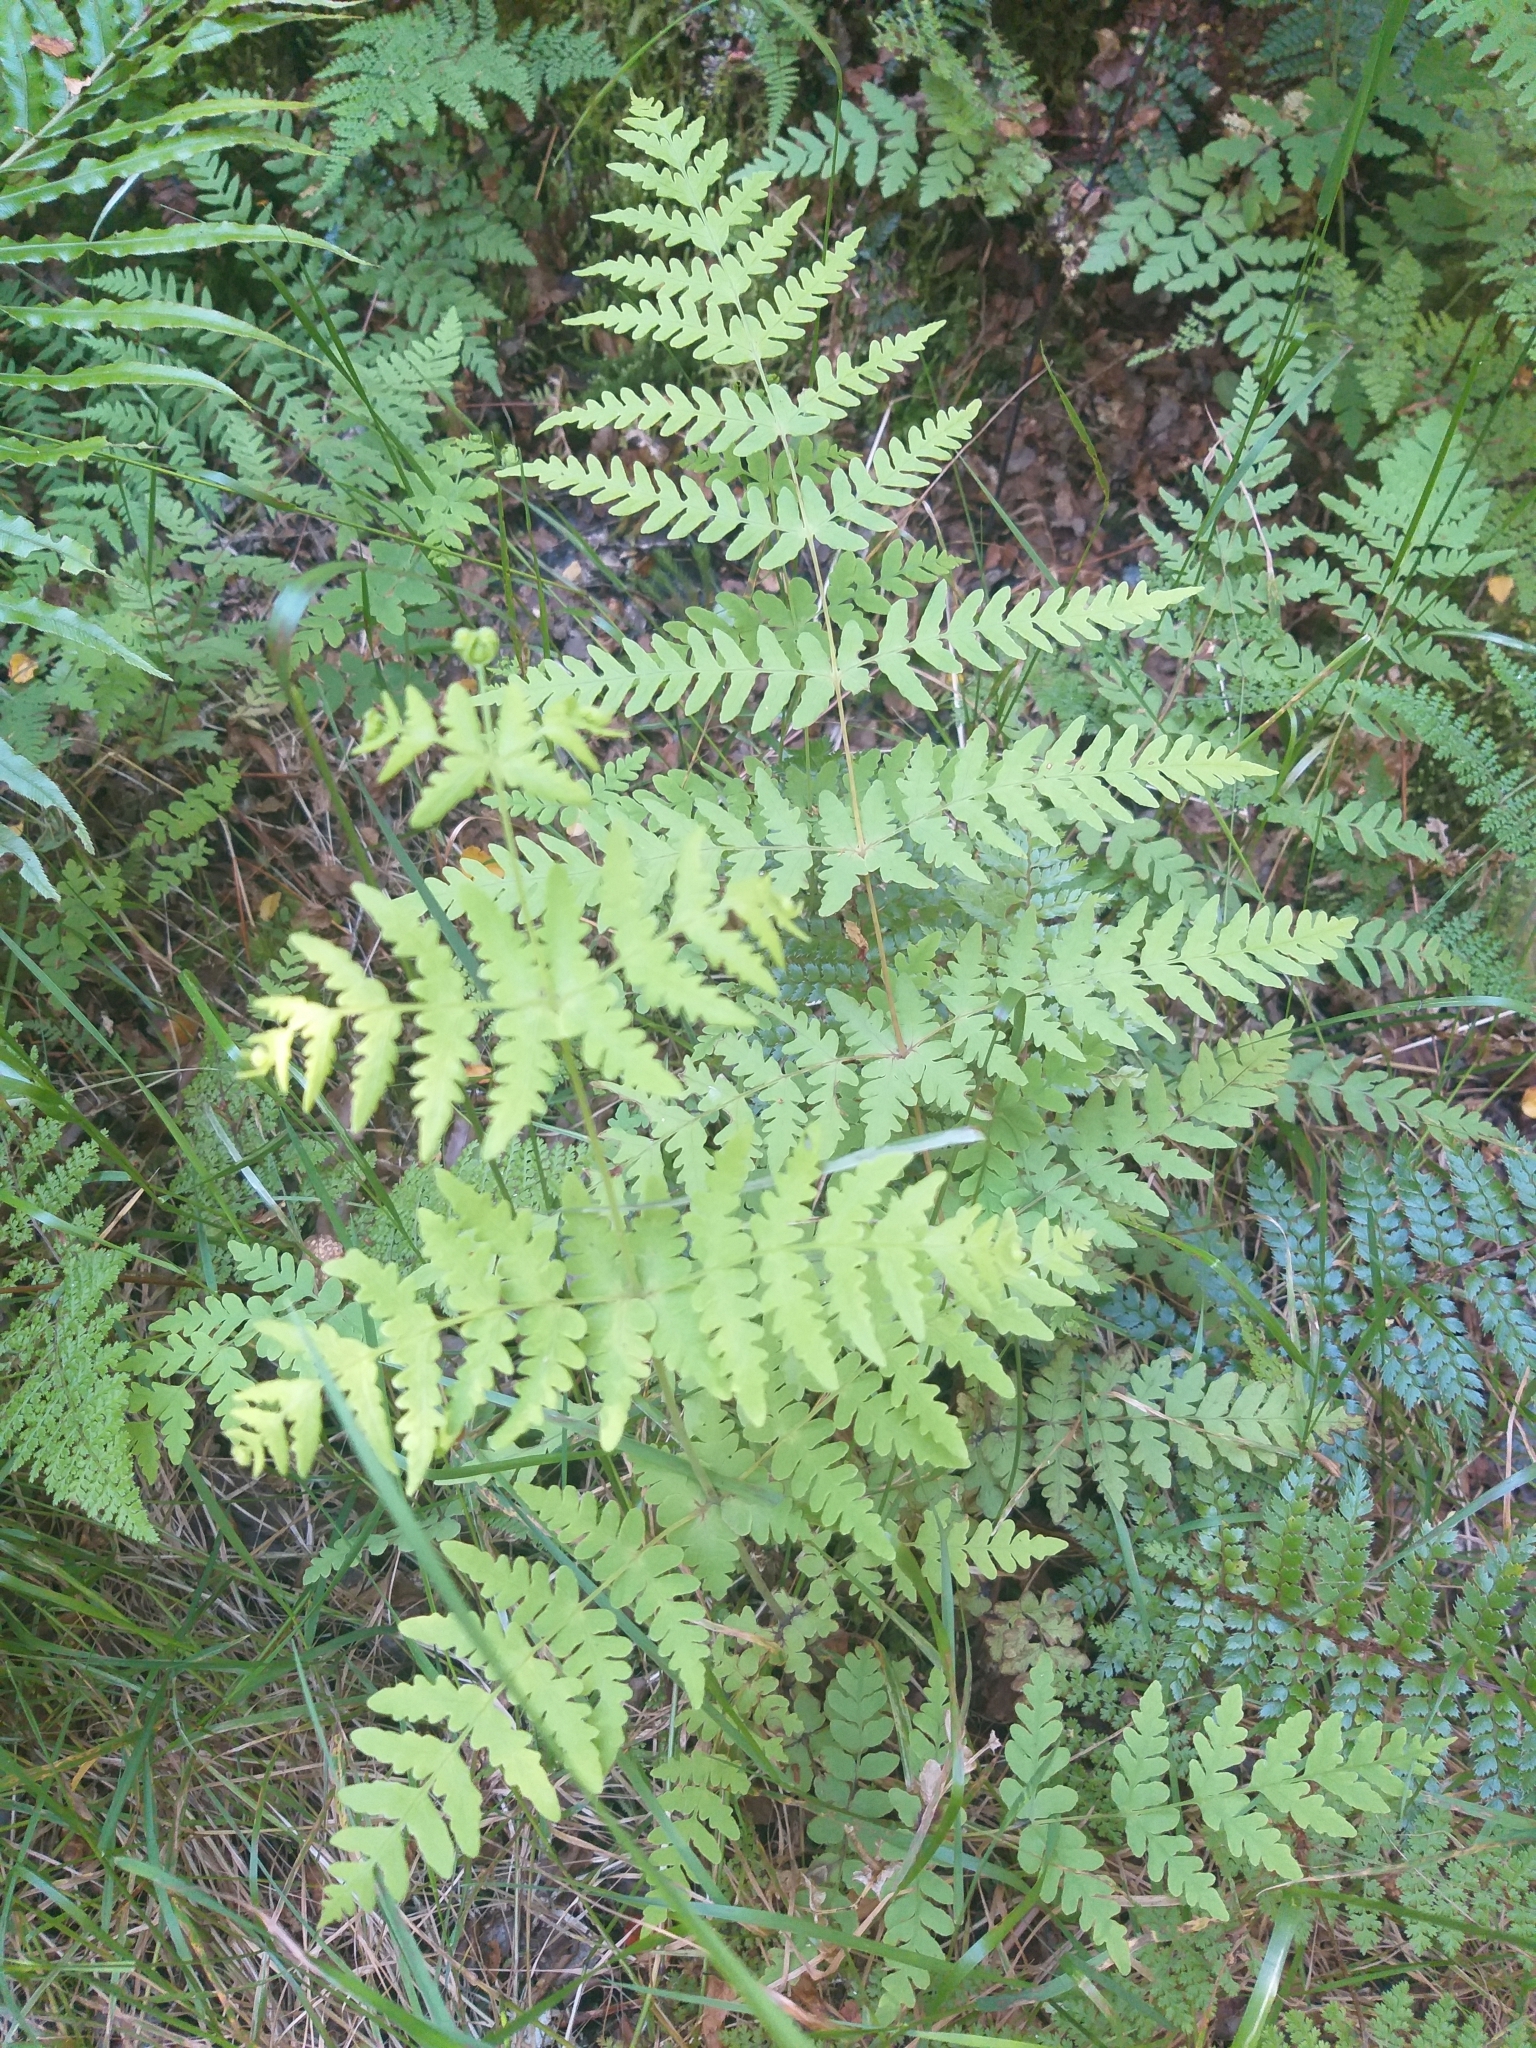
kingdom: Plantae
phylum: Tracheophyta
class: Polypodiopsida
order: Polypodiales
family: Dennstaedtiaceae
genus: Histiopteris
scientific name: Histiopteris incisa
